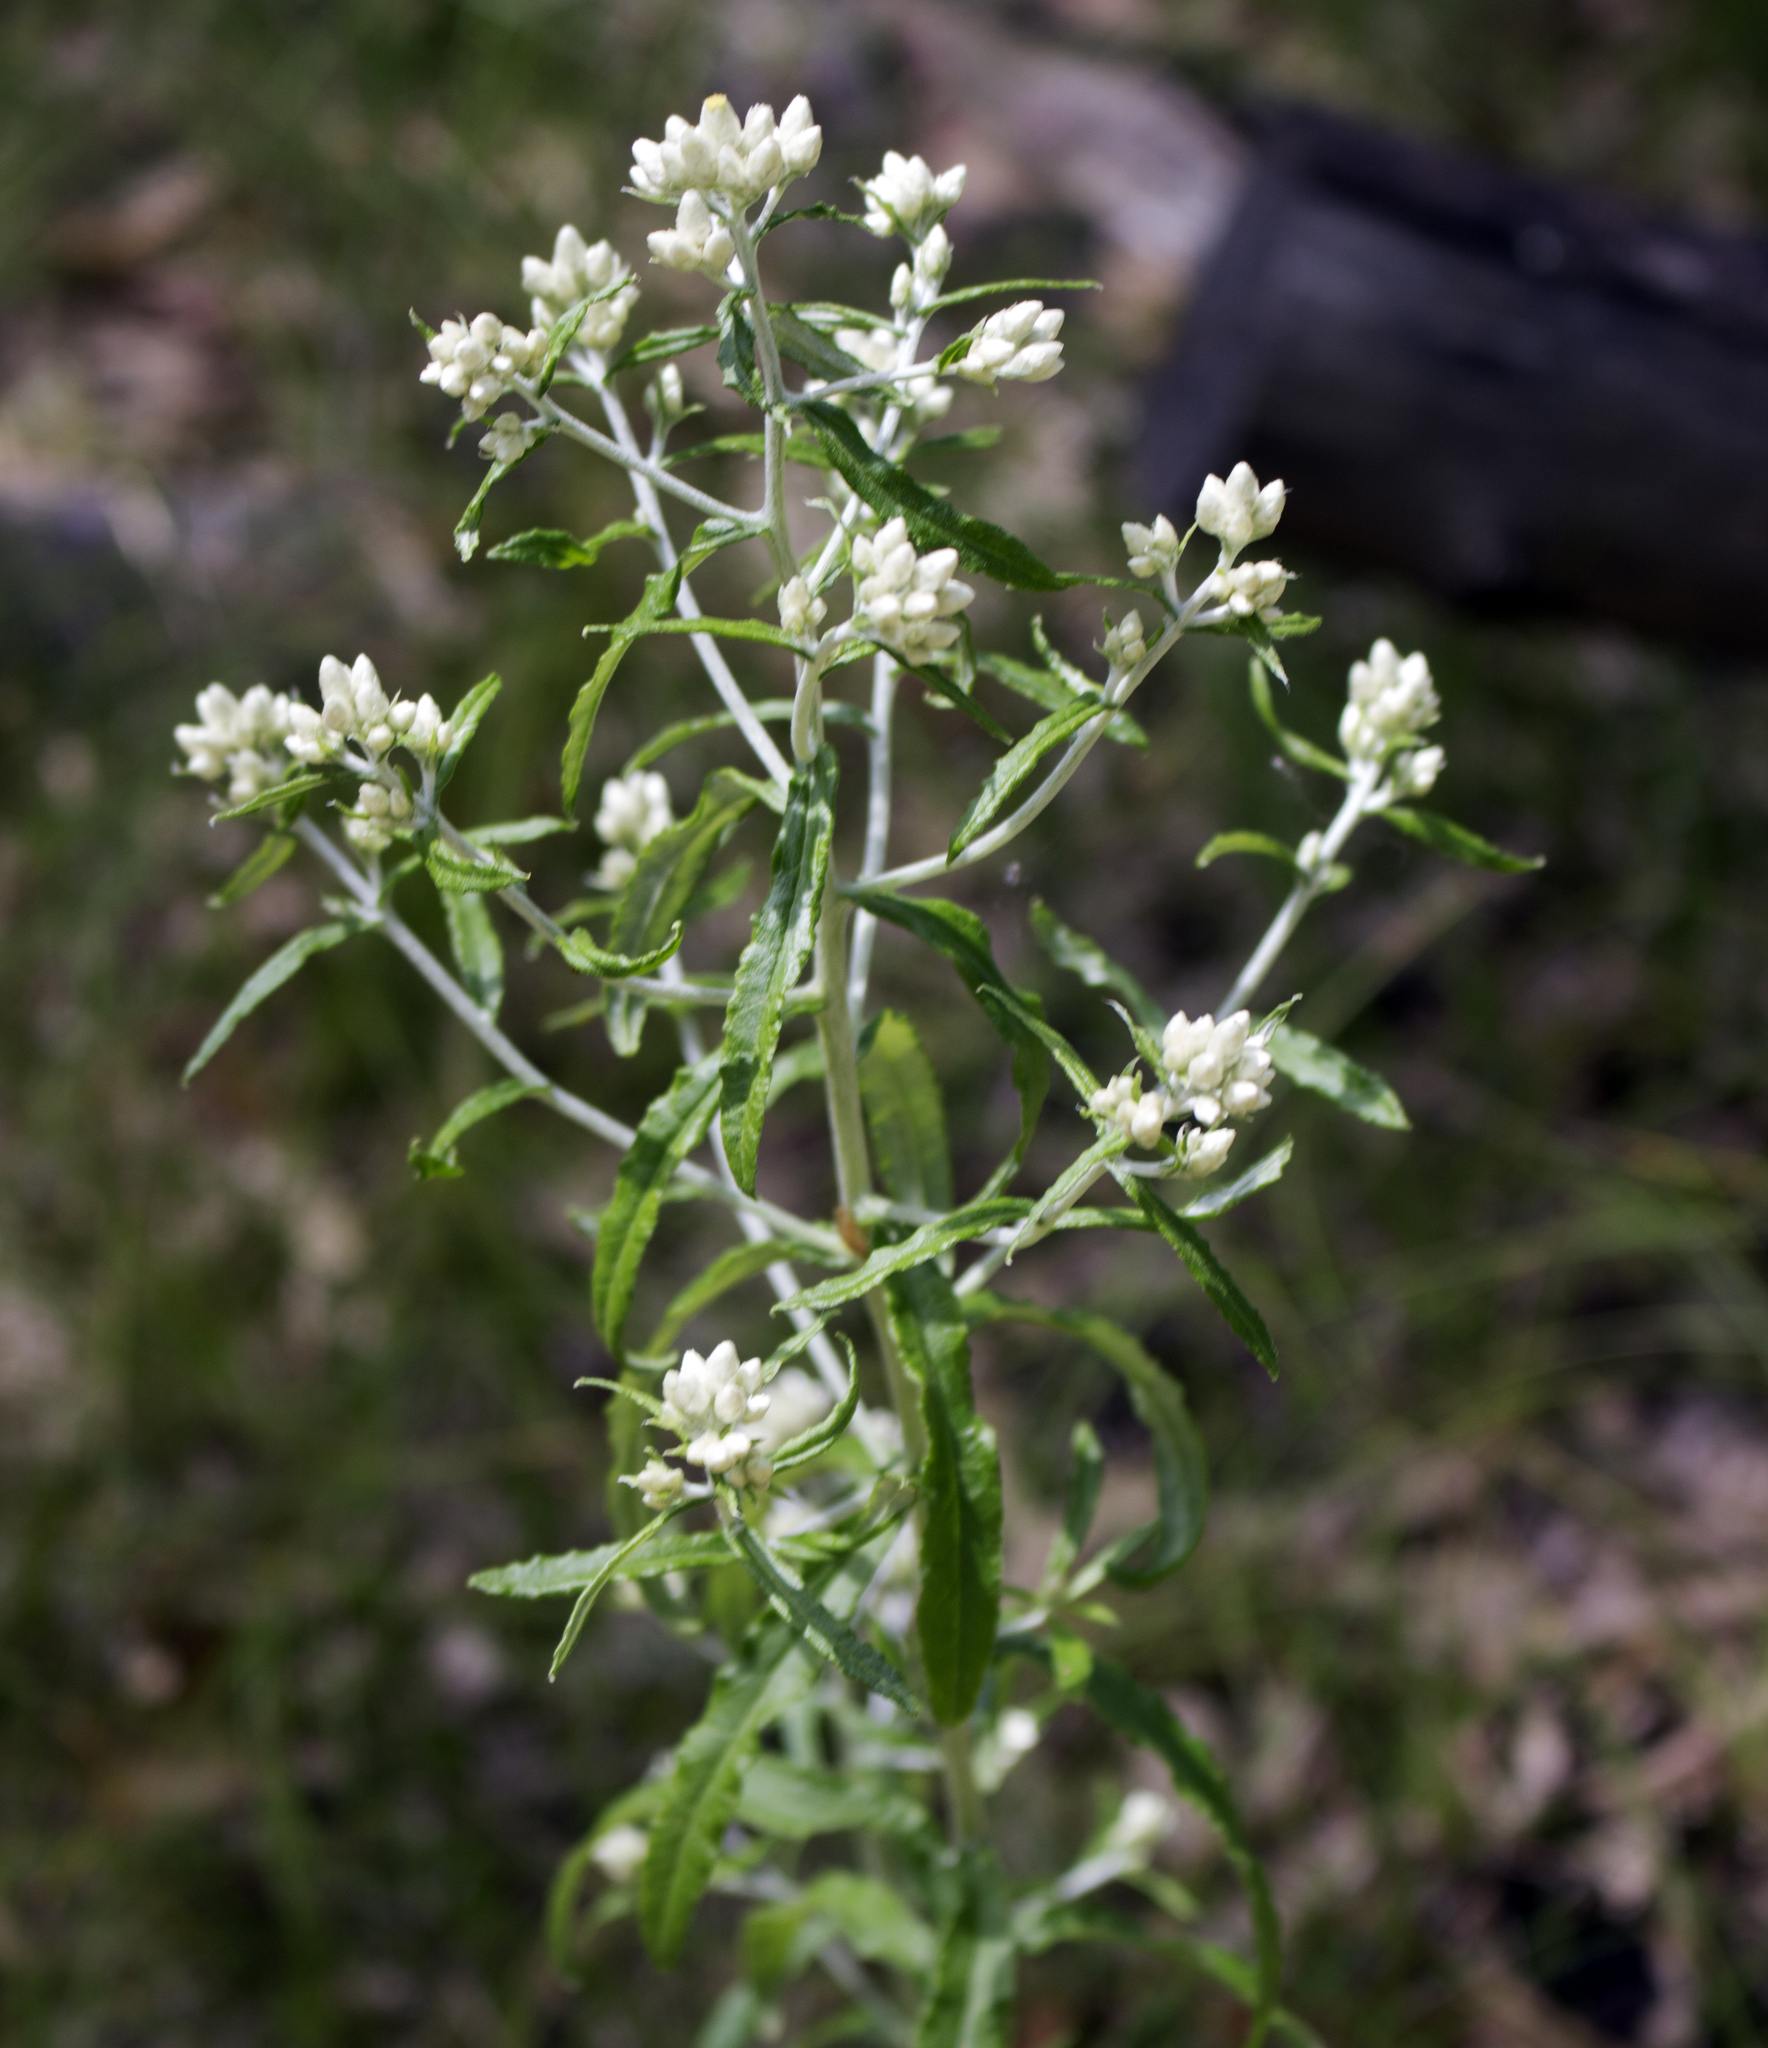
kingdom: Plantae
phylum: Tracheophyta
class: Magnoliopsida
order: Asterales
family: Asteraceae
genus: Pseudognaphalium
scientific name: Pseudognaphalium obtusifolium
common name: Eastern rabbit-tobacco
